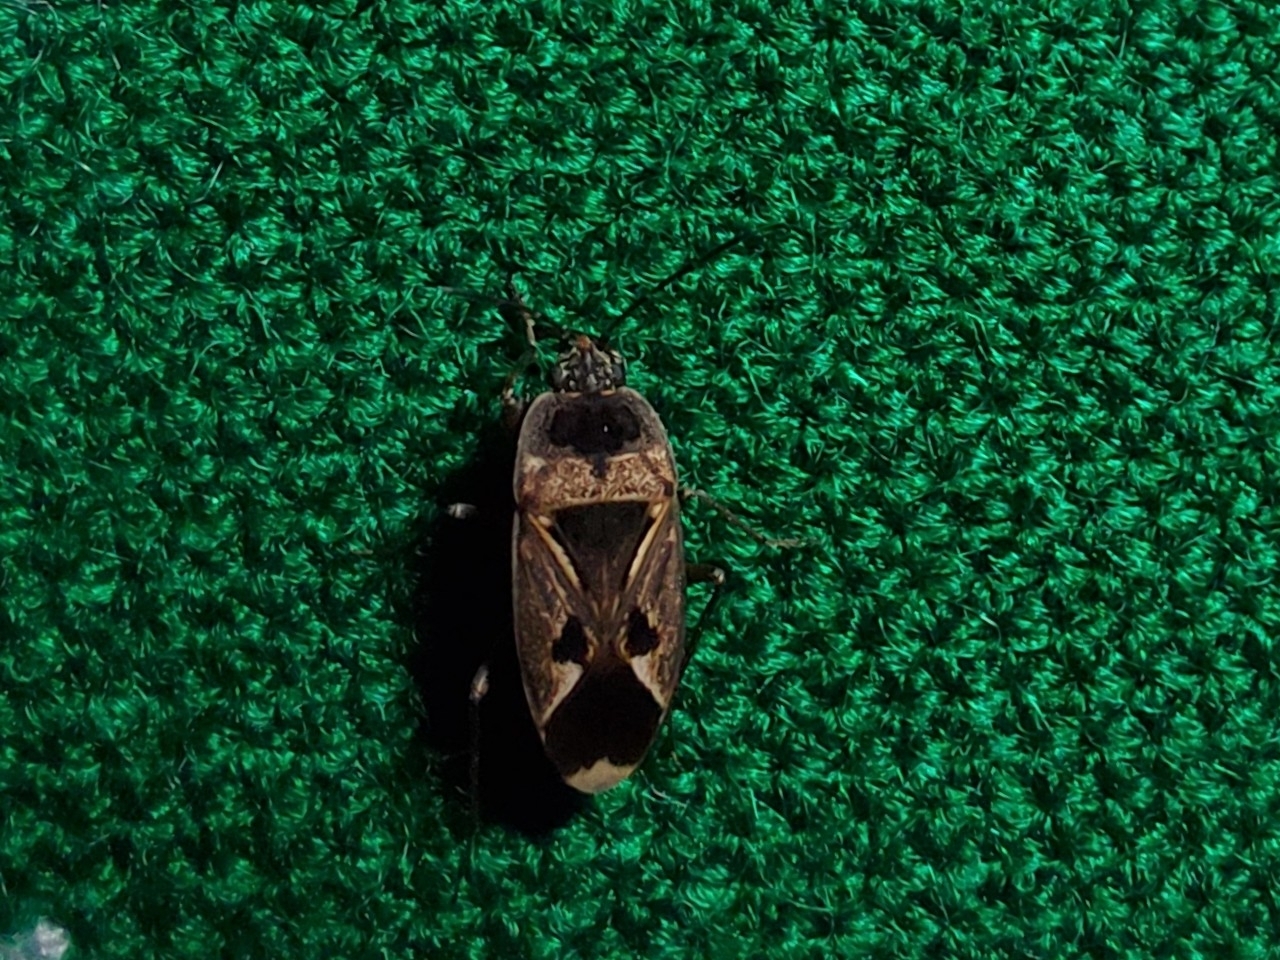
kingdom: Animalia
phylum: Arthropoda
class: Insecta
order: Hemiptera
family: Rhyparochromidae
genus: Naphius
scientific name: Naphius apicalis
